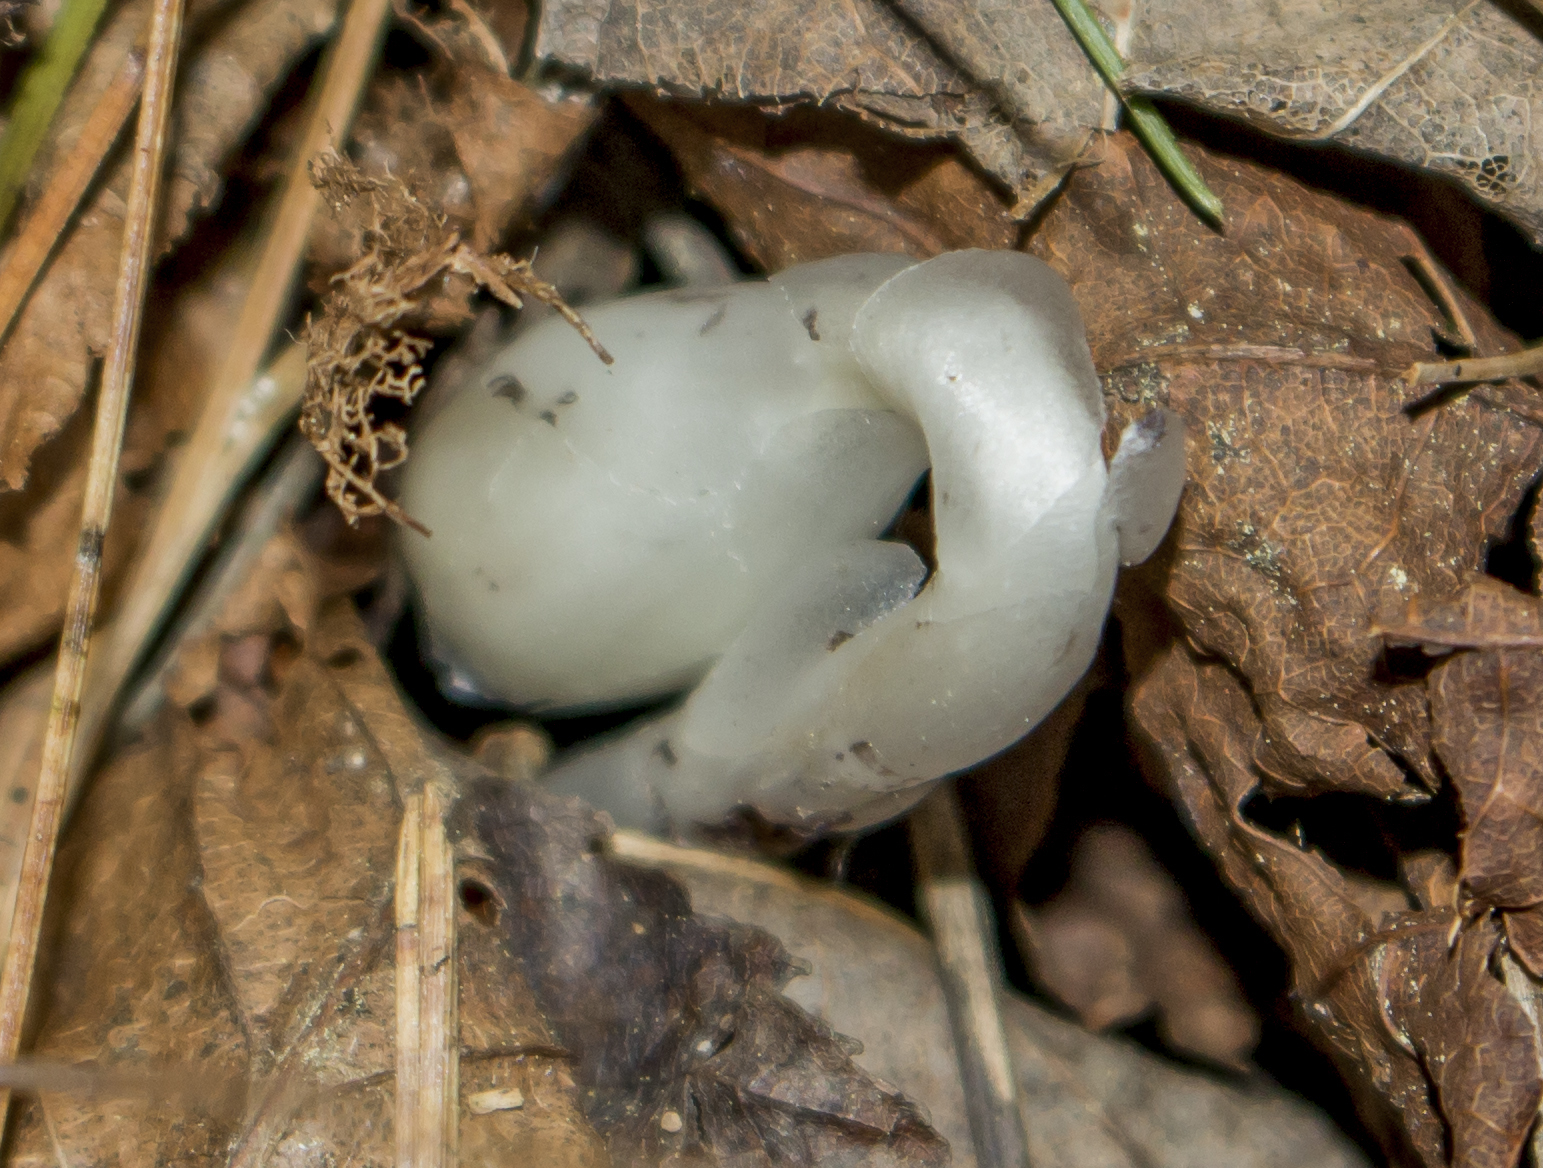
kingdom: Plantae
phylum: Tracheophyta
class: Magnoliopsida
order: Ericales
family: Ericaceae
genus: Monotropa
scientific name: Monotropa uniflora
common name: Convulsion root
